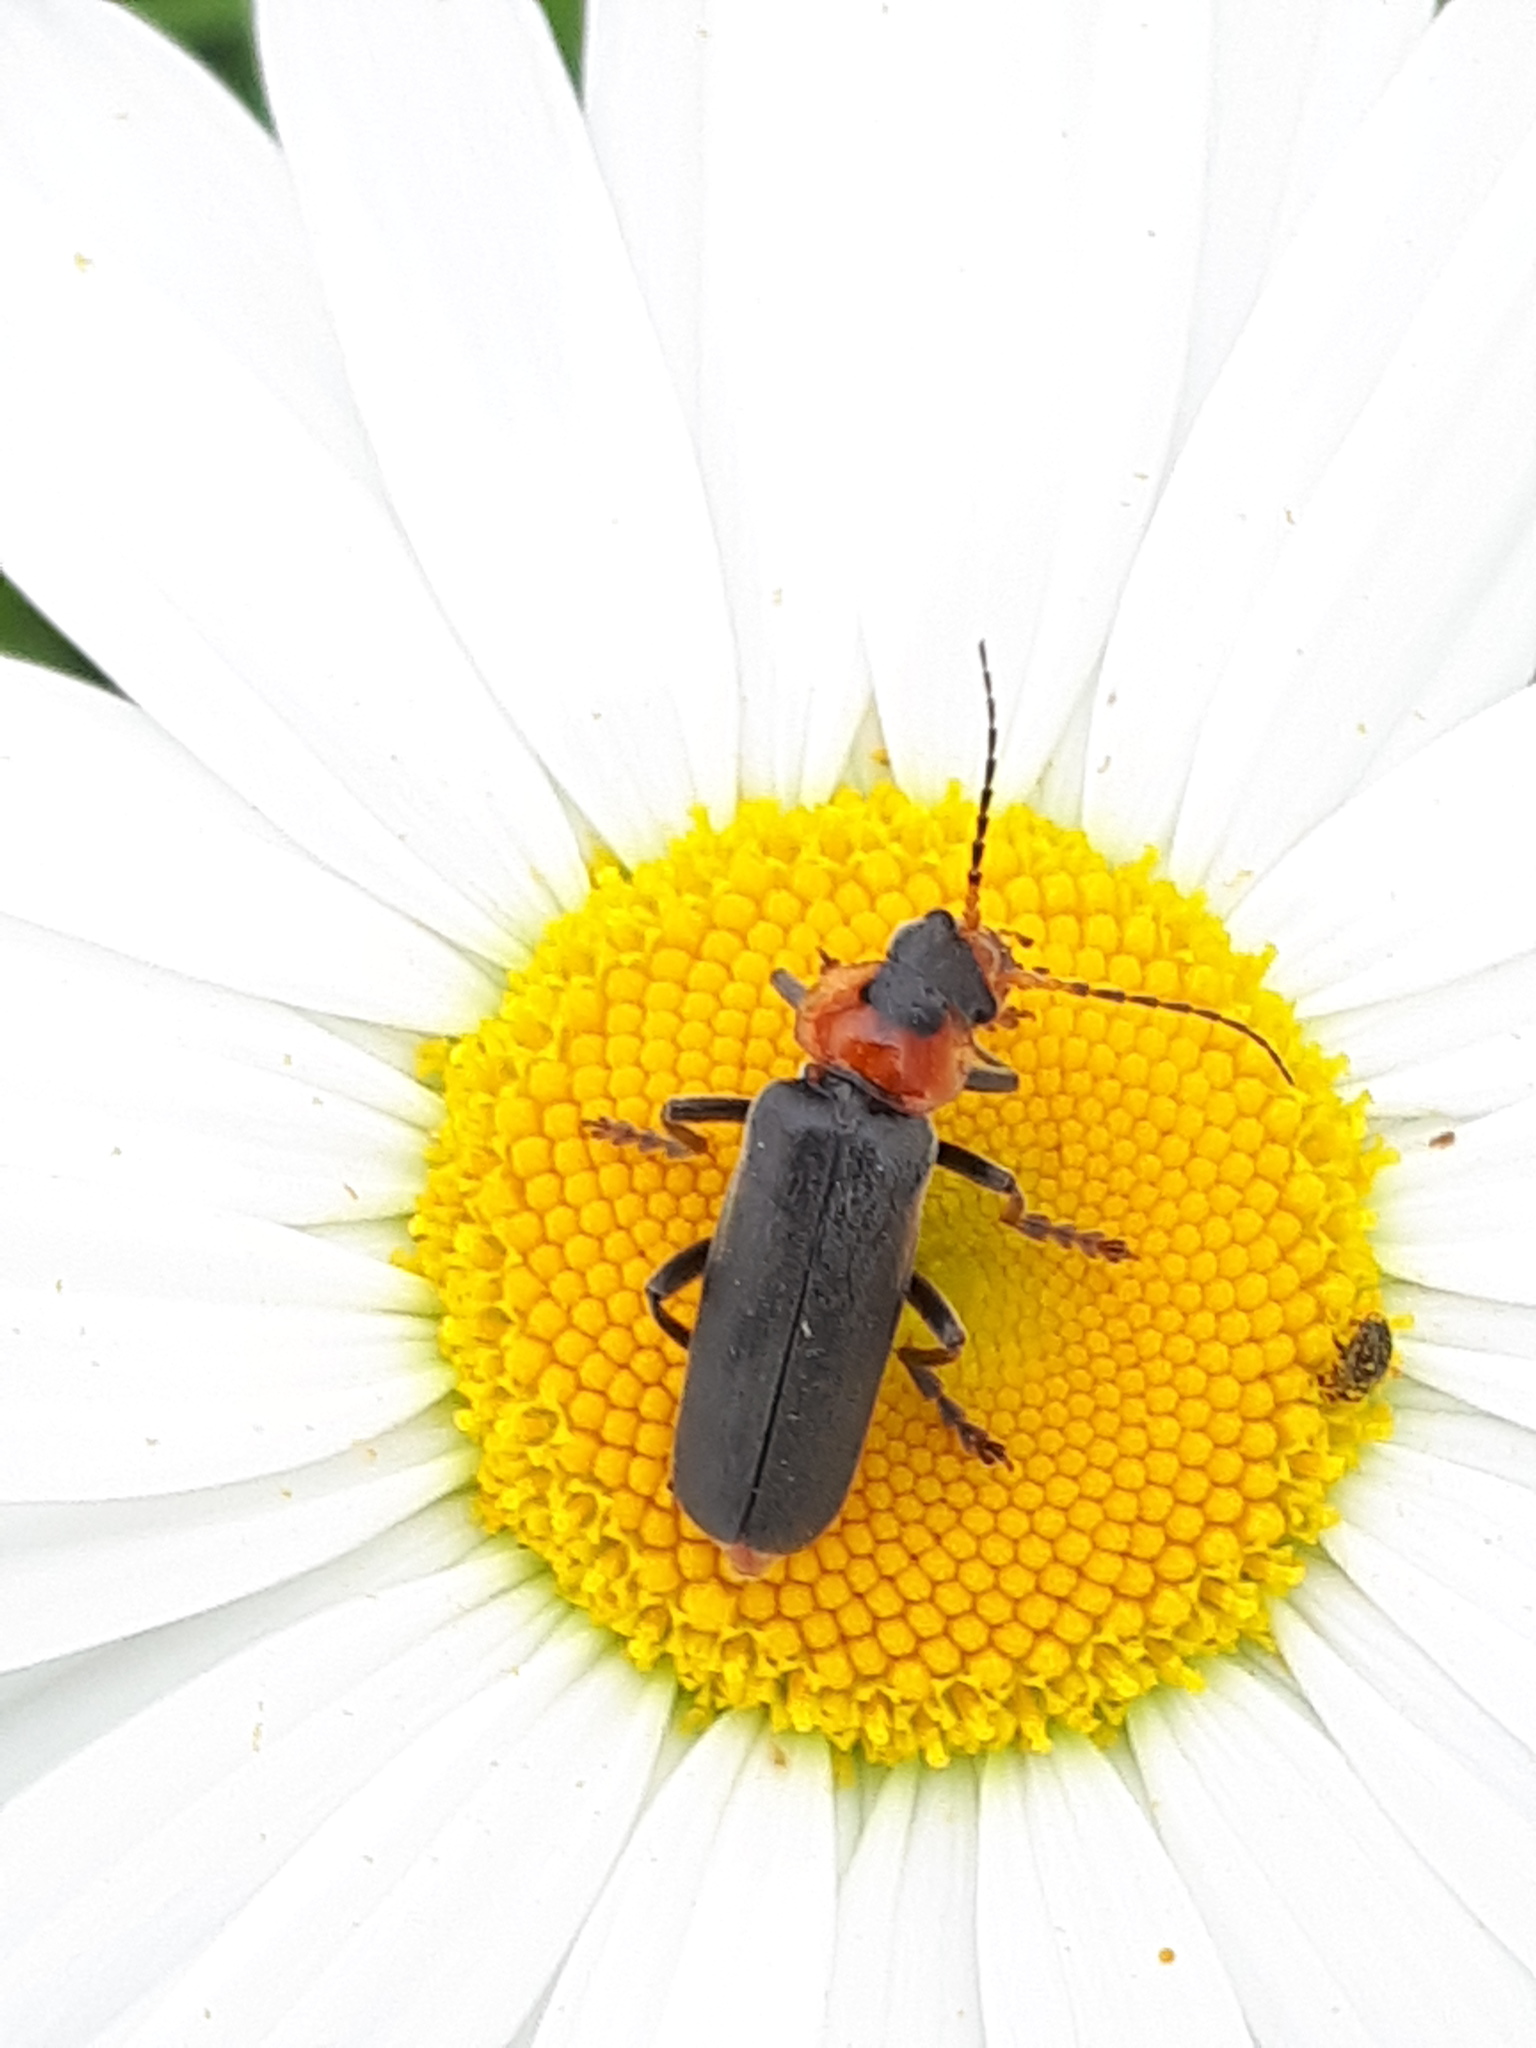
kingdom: Animalia
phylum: Arthropoda
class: Insecta
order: Coleoptera
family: Cantharidae
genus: Cantharis
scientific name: Cantharis fusca
